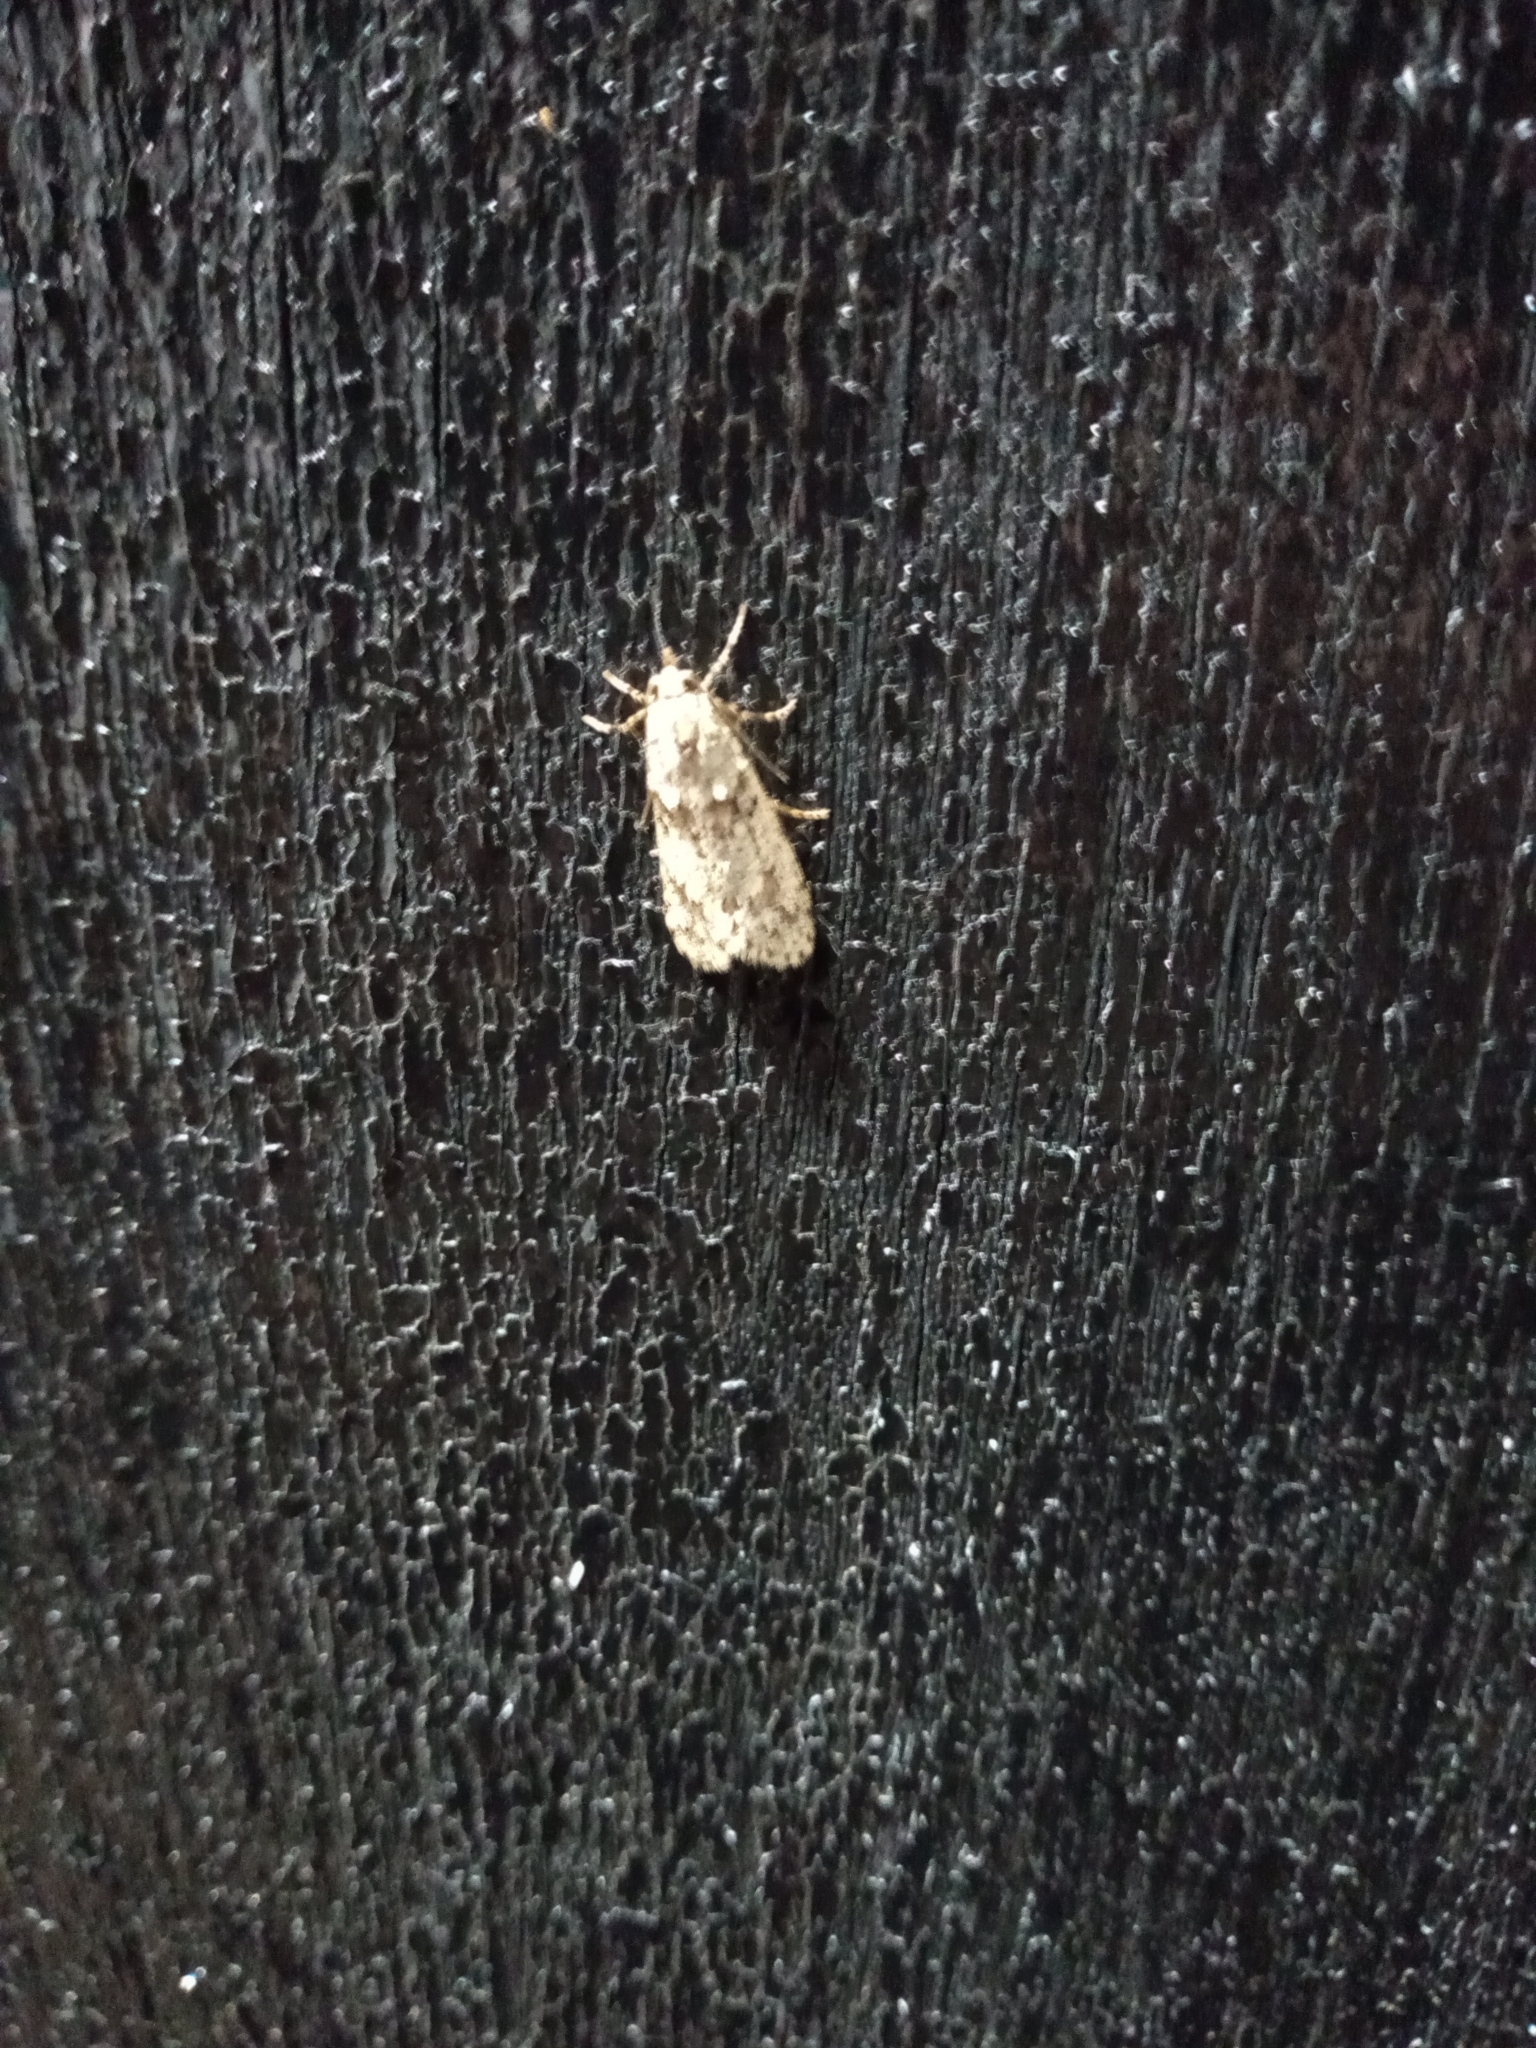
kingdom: Animalia
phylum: Arthropoda
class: Insecta
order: Lepidoptera
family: Lypusidae
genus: Diurnea
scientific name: Diurnea fagella
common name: March tubic
